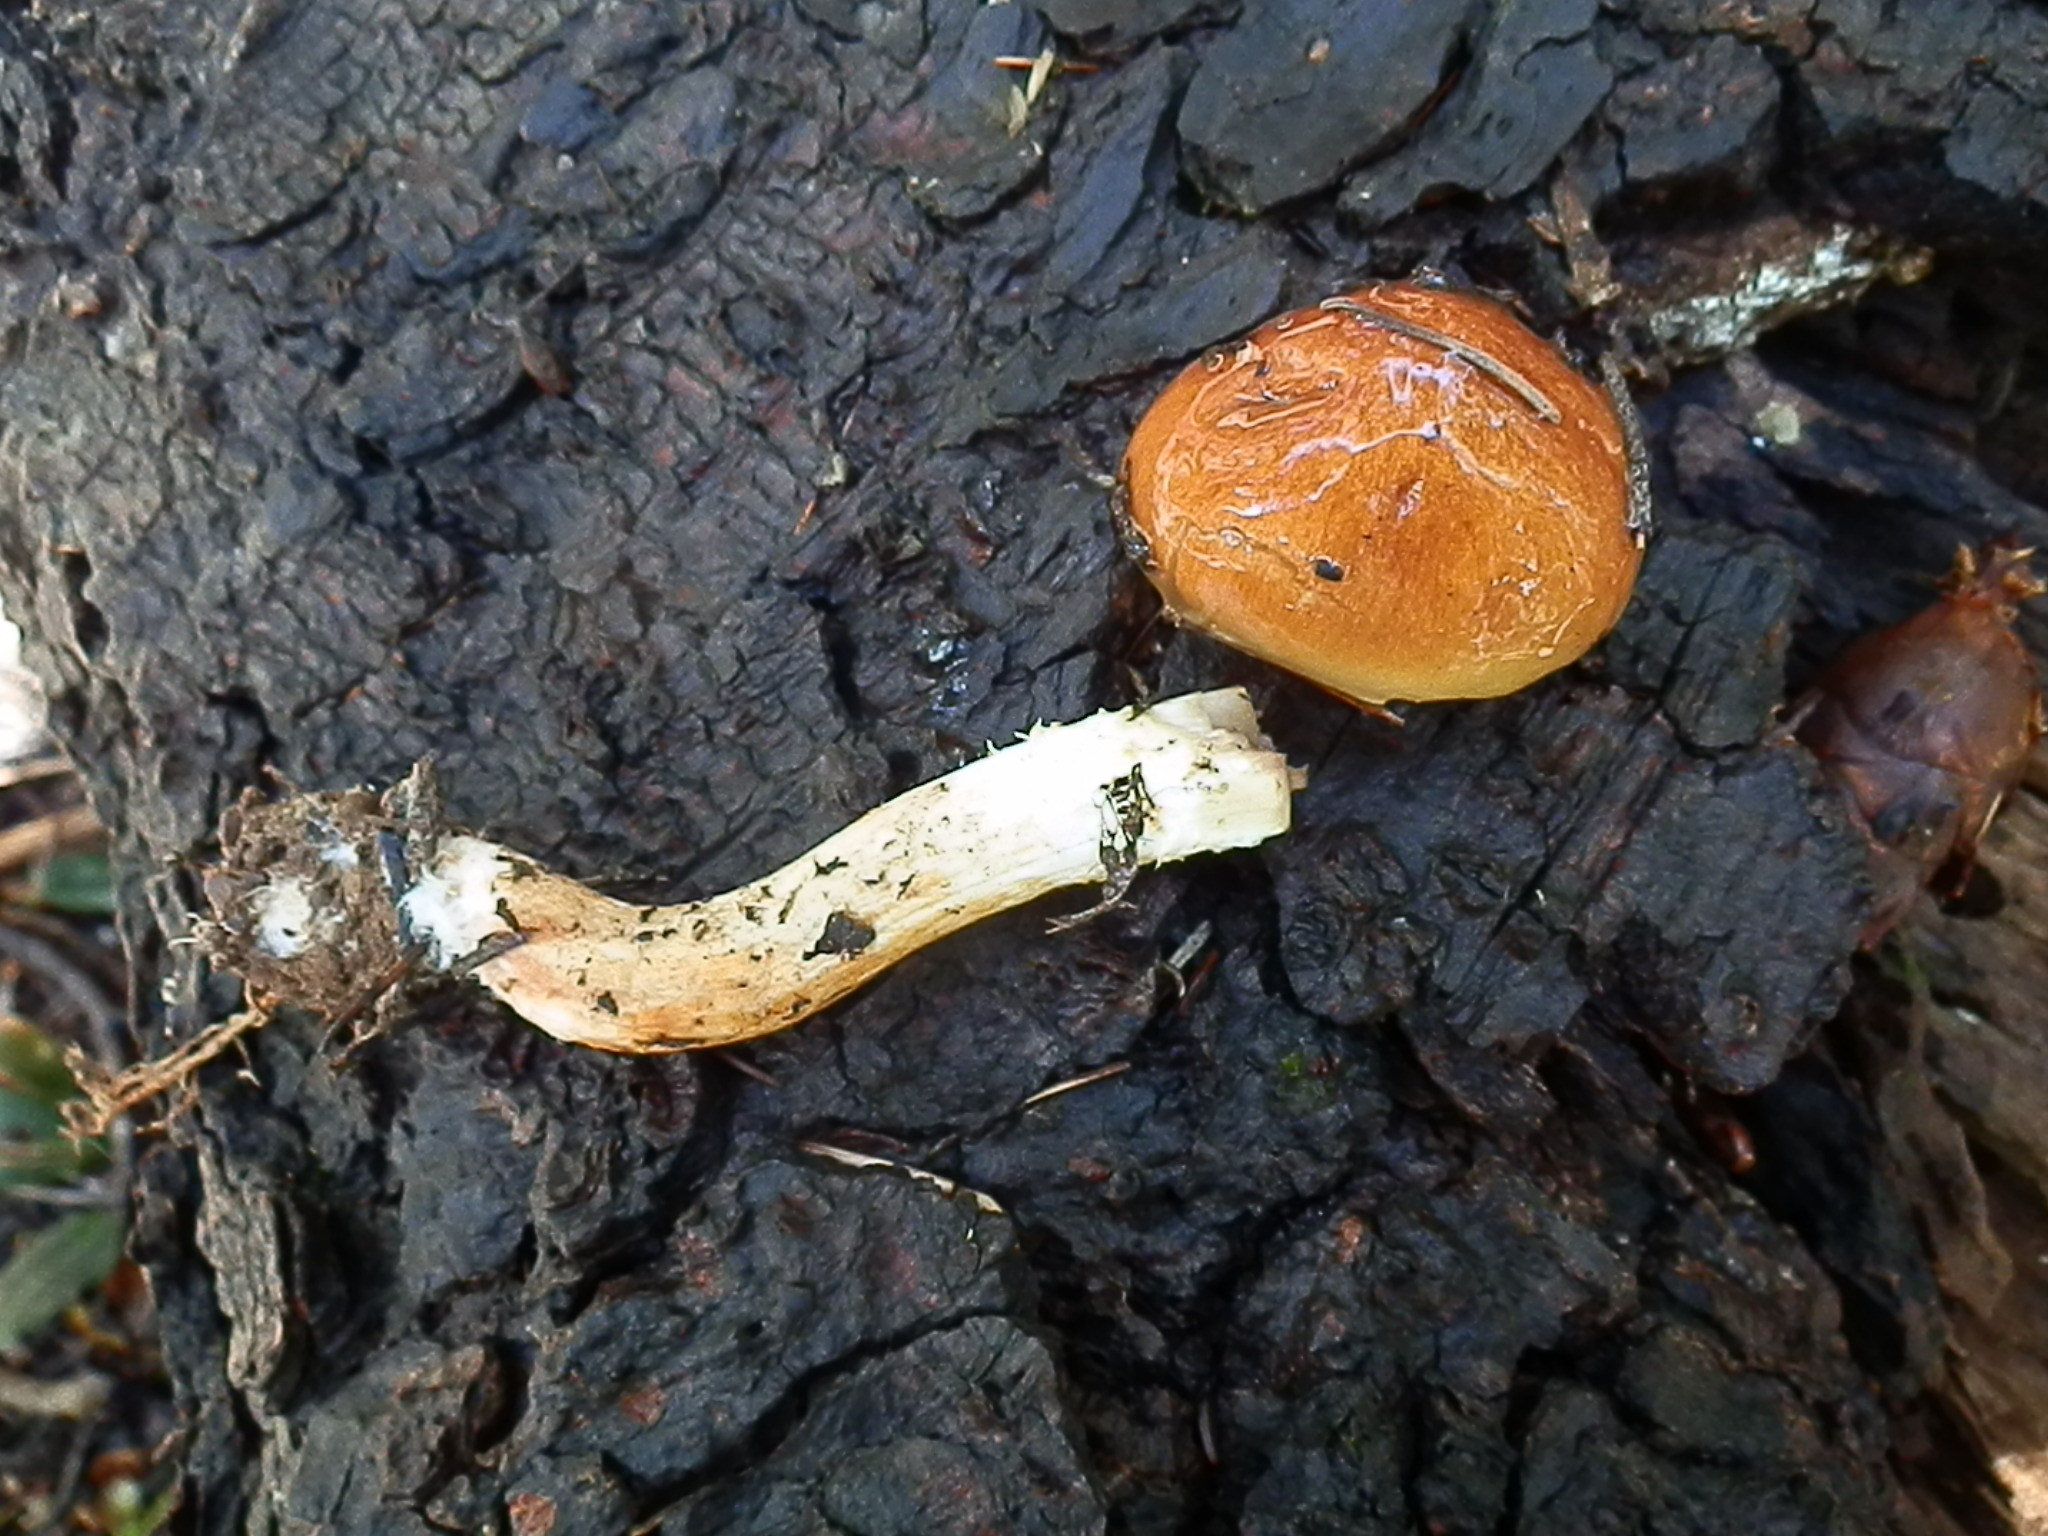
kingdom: Fungi
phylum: Basidiomycota
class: Agaricomycetes
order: Agaricales
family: Strophariaceae
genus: Pholiota
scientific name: Pholiota rufodisca
